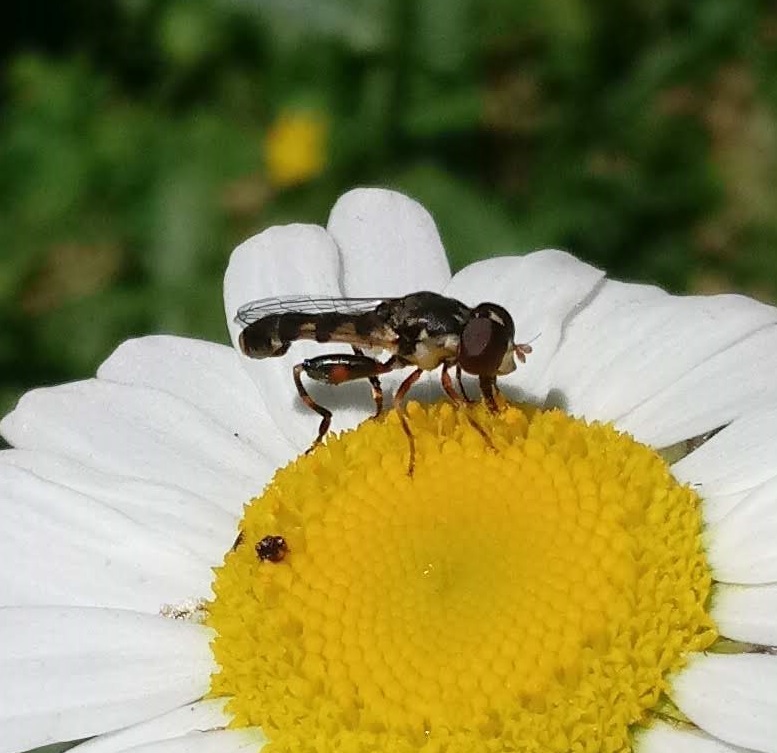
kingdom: Animalia
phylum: Arthropoda
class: Insecta
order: Diptera
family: Syrphidae
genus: Syritta
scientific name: Syritta pipiens
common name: Hover fly
